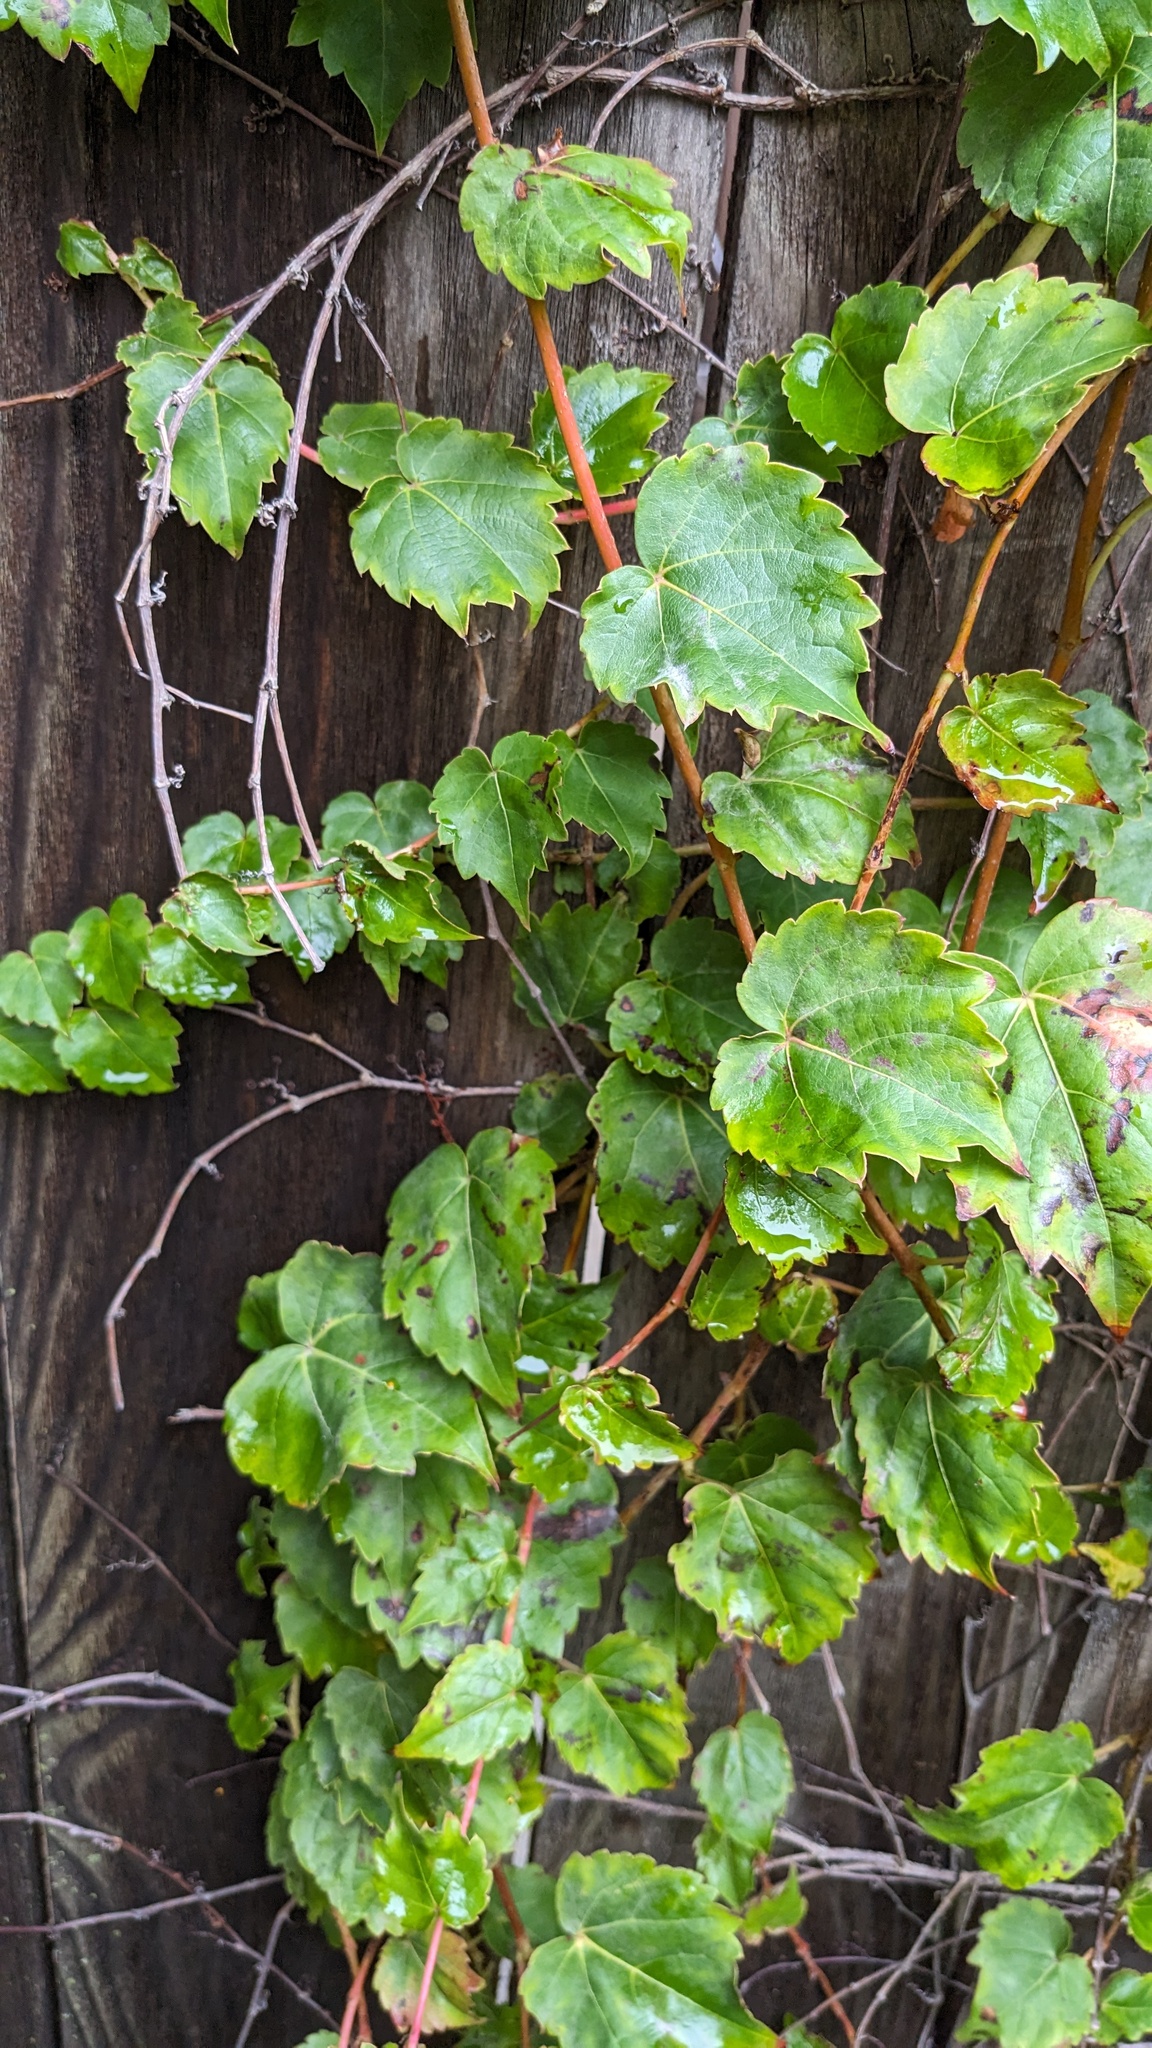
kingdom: Plantae
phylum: Tracheophyta
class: Magnoliopsida
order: Vitales
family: Vitaceae
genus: Parthenocissus
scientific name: Parthenocissus tricuspidata
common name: Boston ivy
